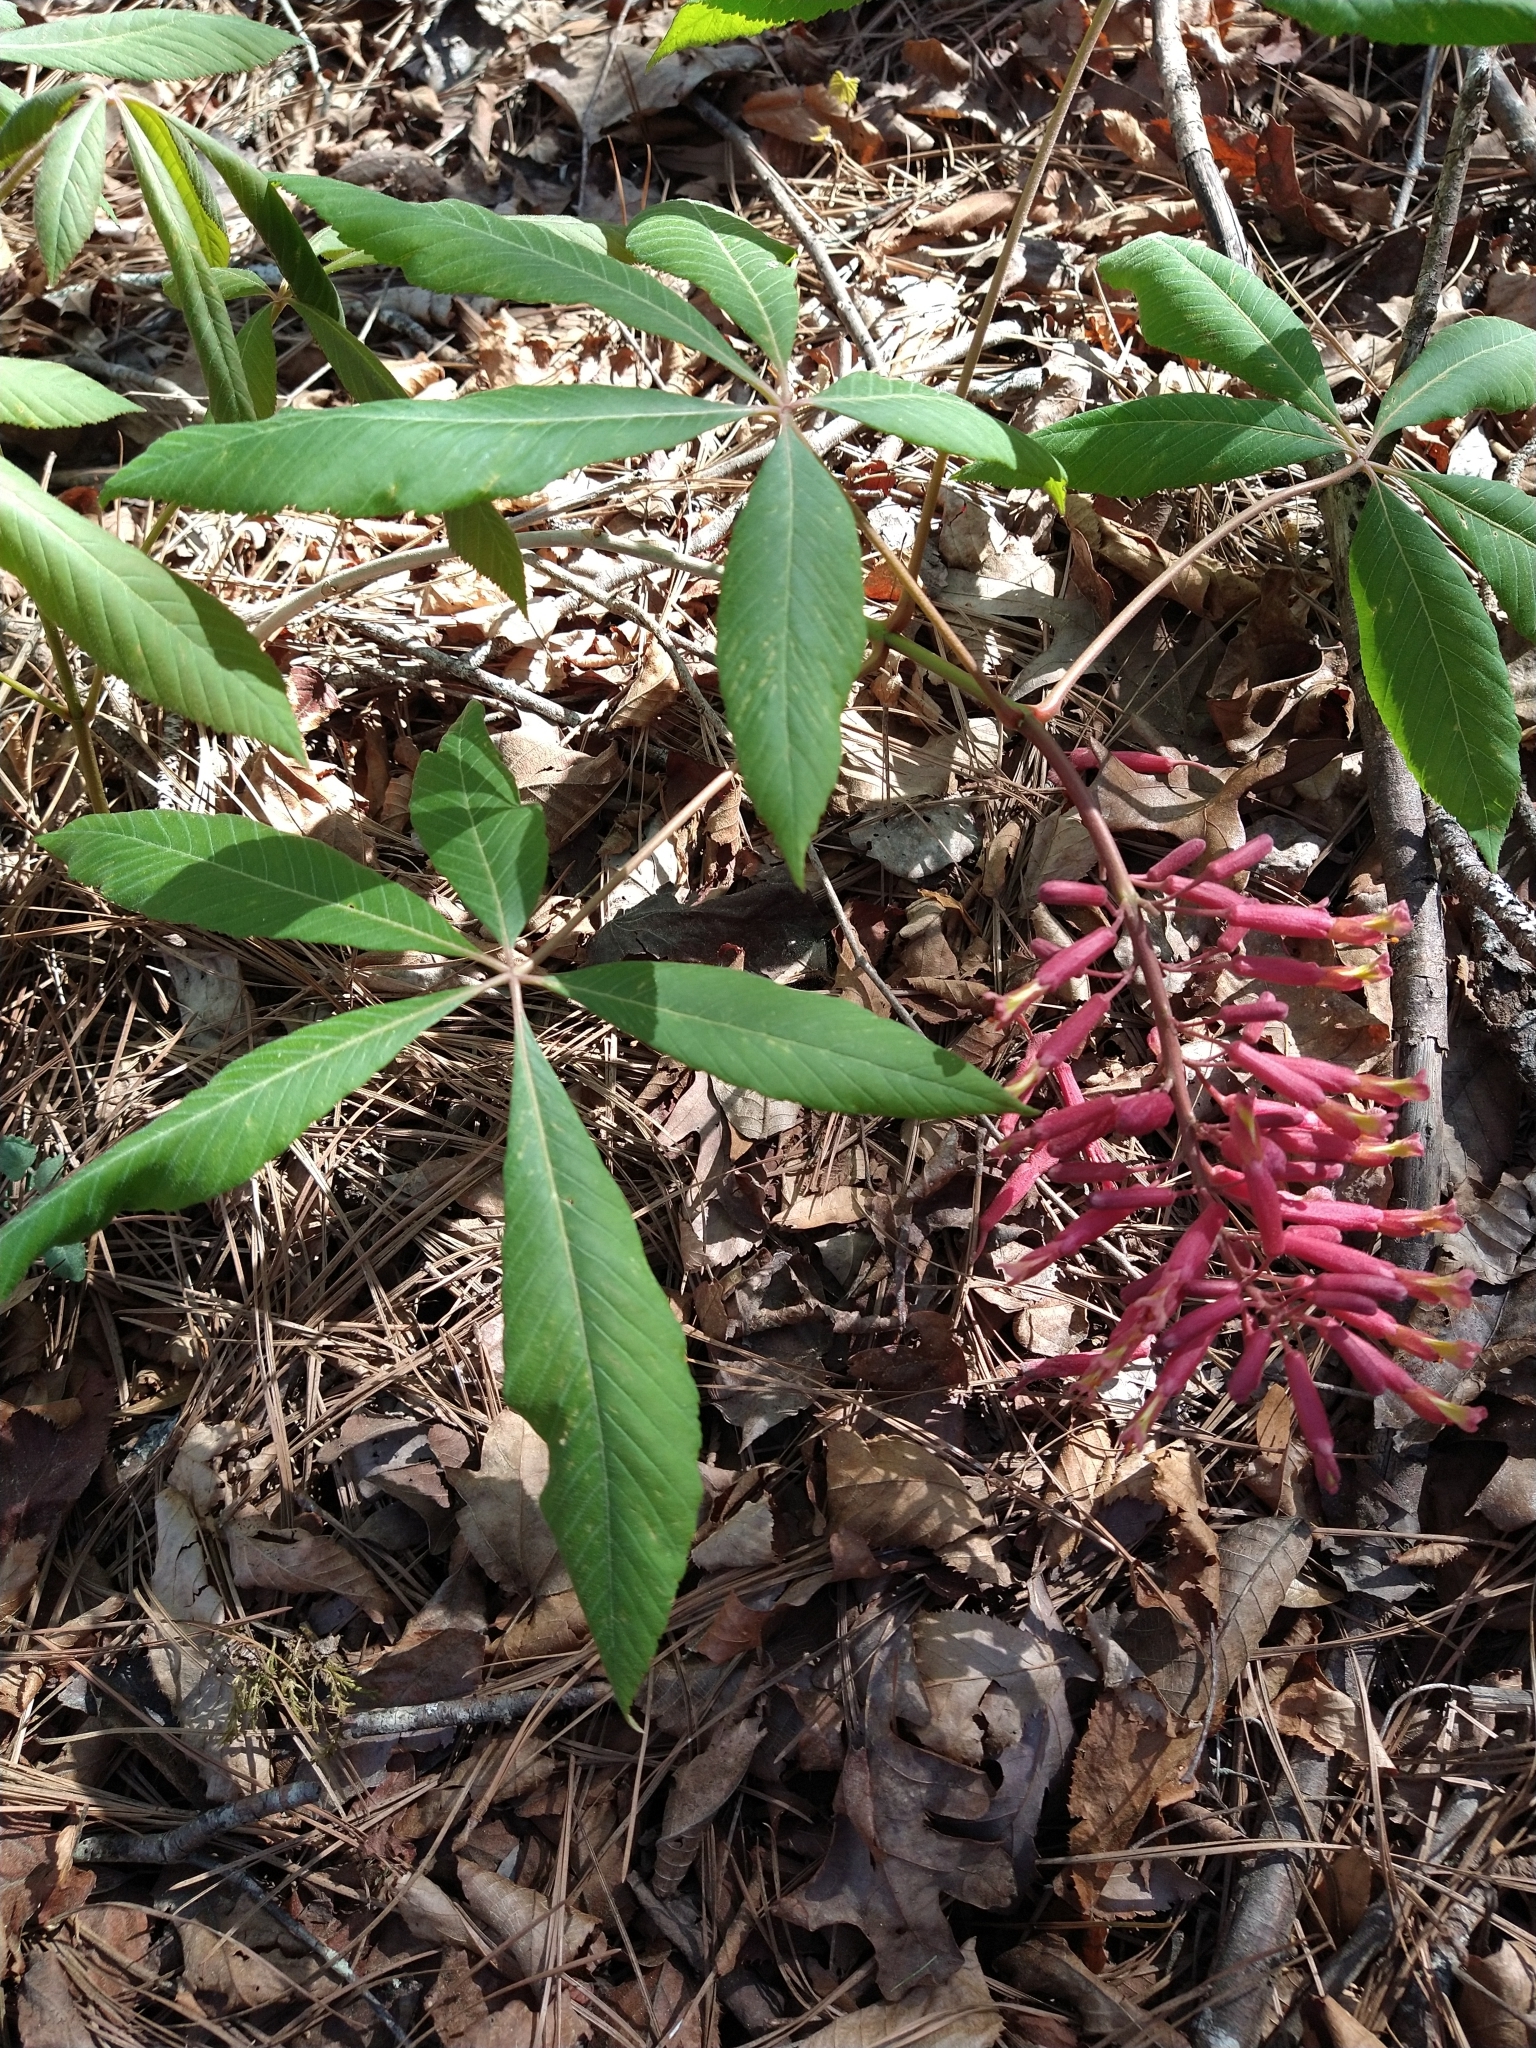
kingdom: Plantae
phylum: Tracheophyta
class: Magnoliopsida
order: Sapindales
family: Sapindaceae
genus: Aesculus
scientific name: Aesculus pavia
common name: Red buckeye
